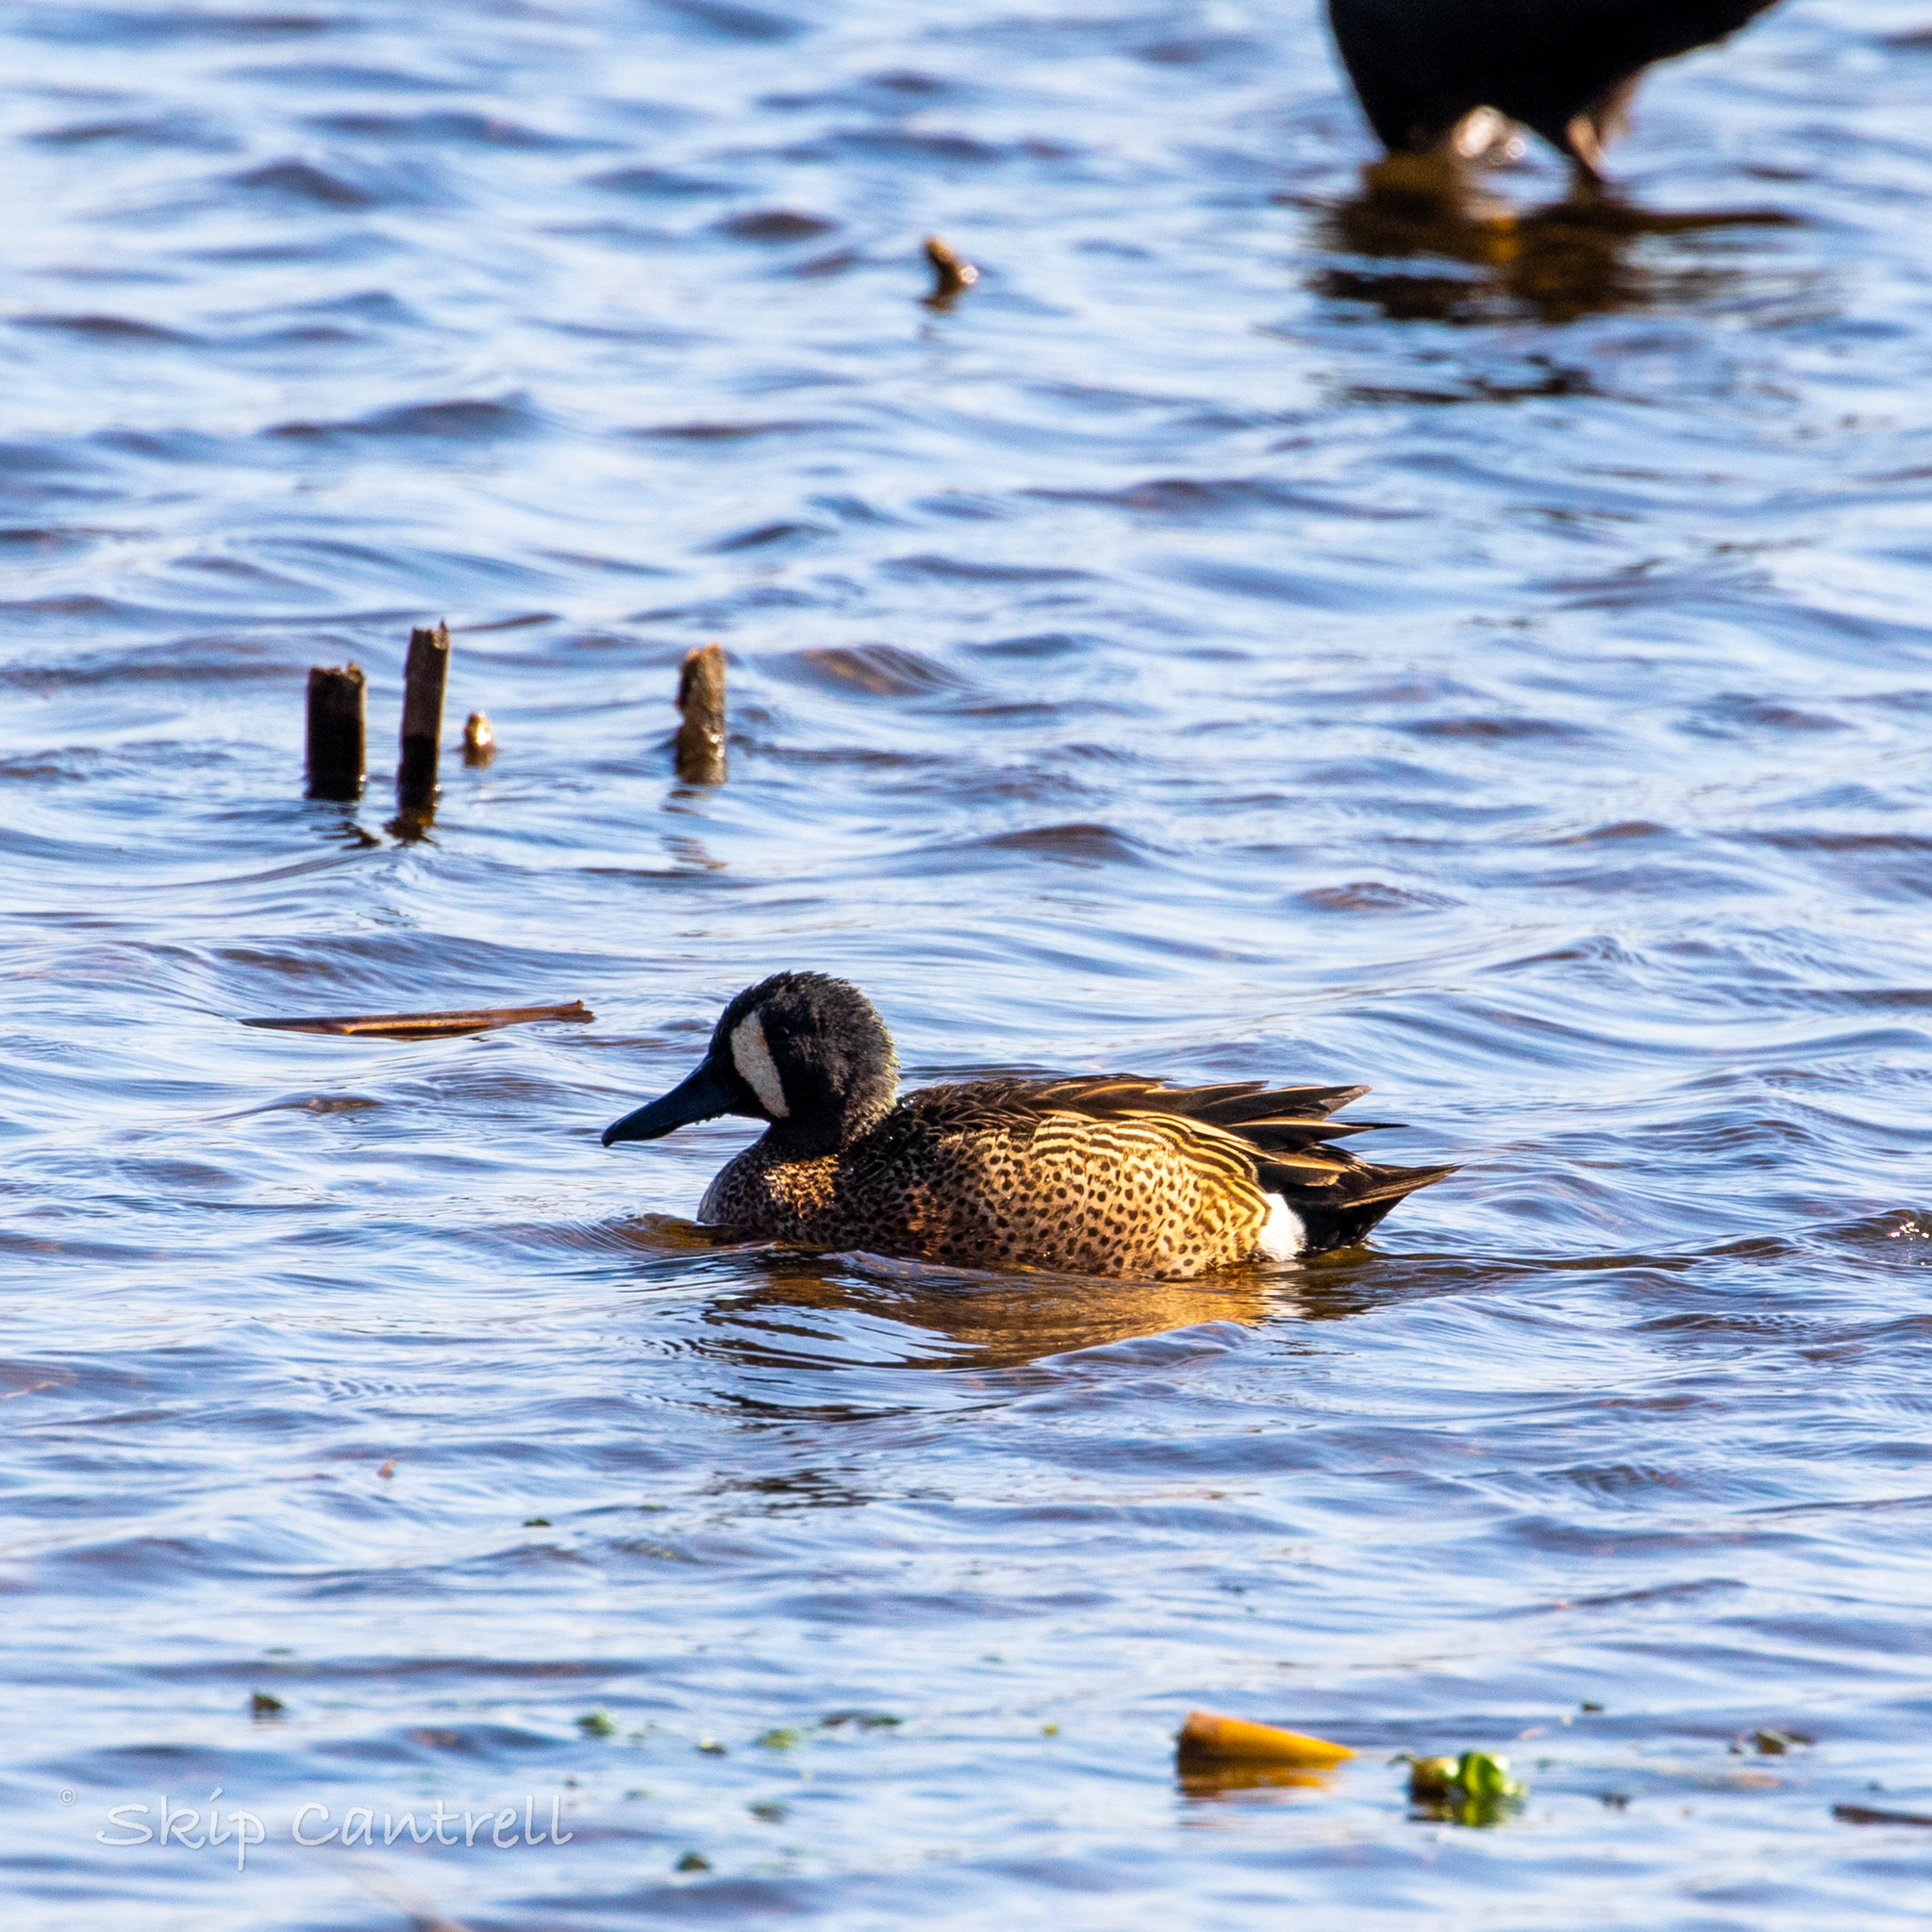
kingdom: Animalia
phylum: Chordata
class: Aves
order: Anseriformes
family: Anatidae
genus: Spatula
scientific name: Spatula discors
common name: Blue-winged teal
